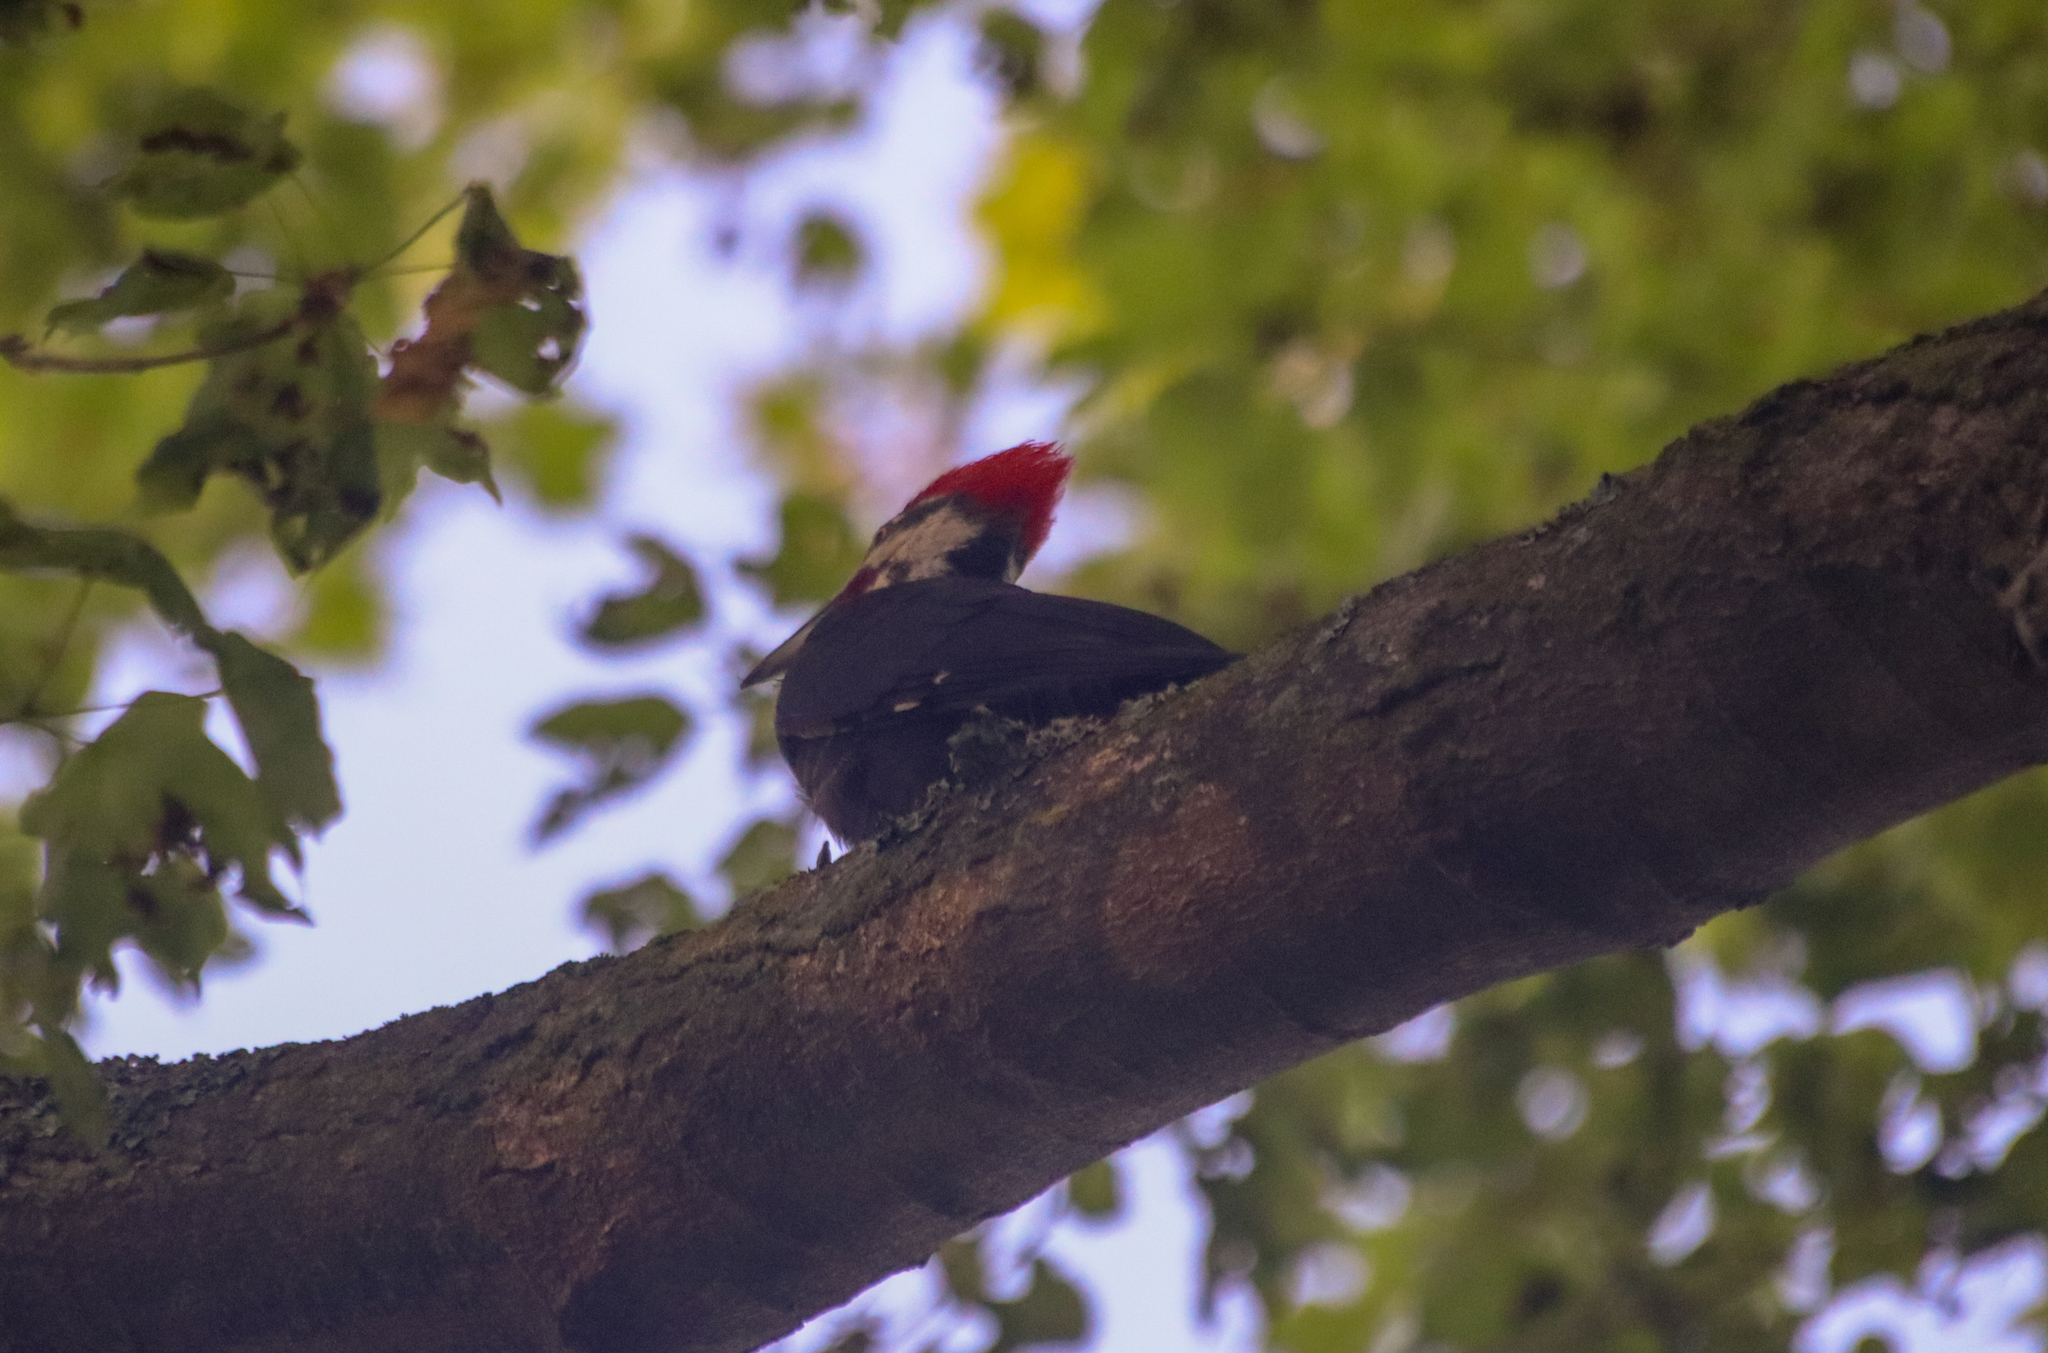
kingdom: Animalia
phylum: Chordata
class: Aves
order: Piciformes
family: Picidae
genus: Dryocopus
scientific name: Dryocopus pileatus
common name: Pileated woodpecker
